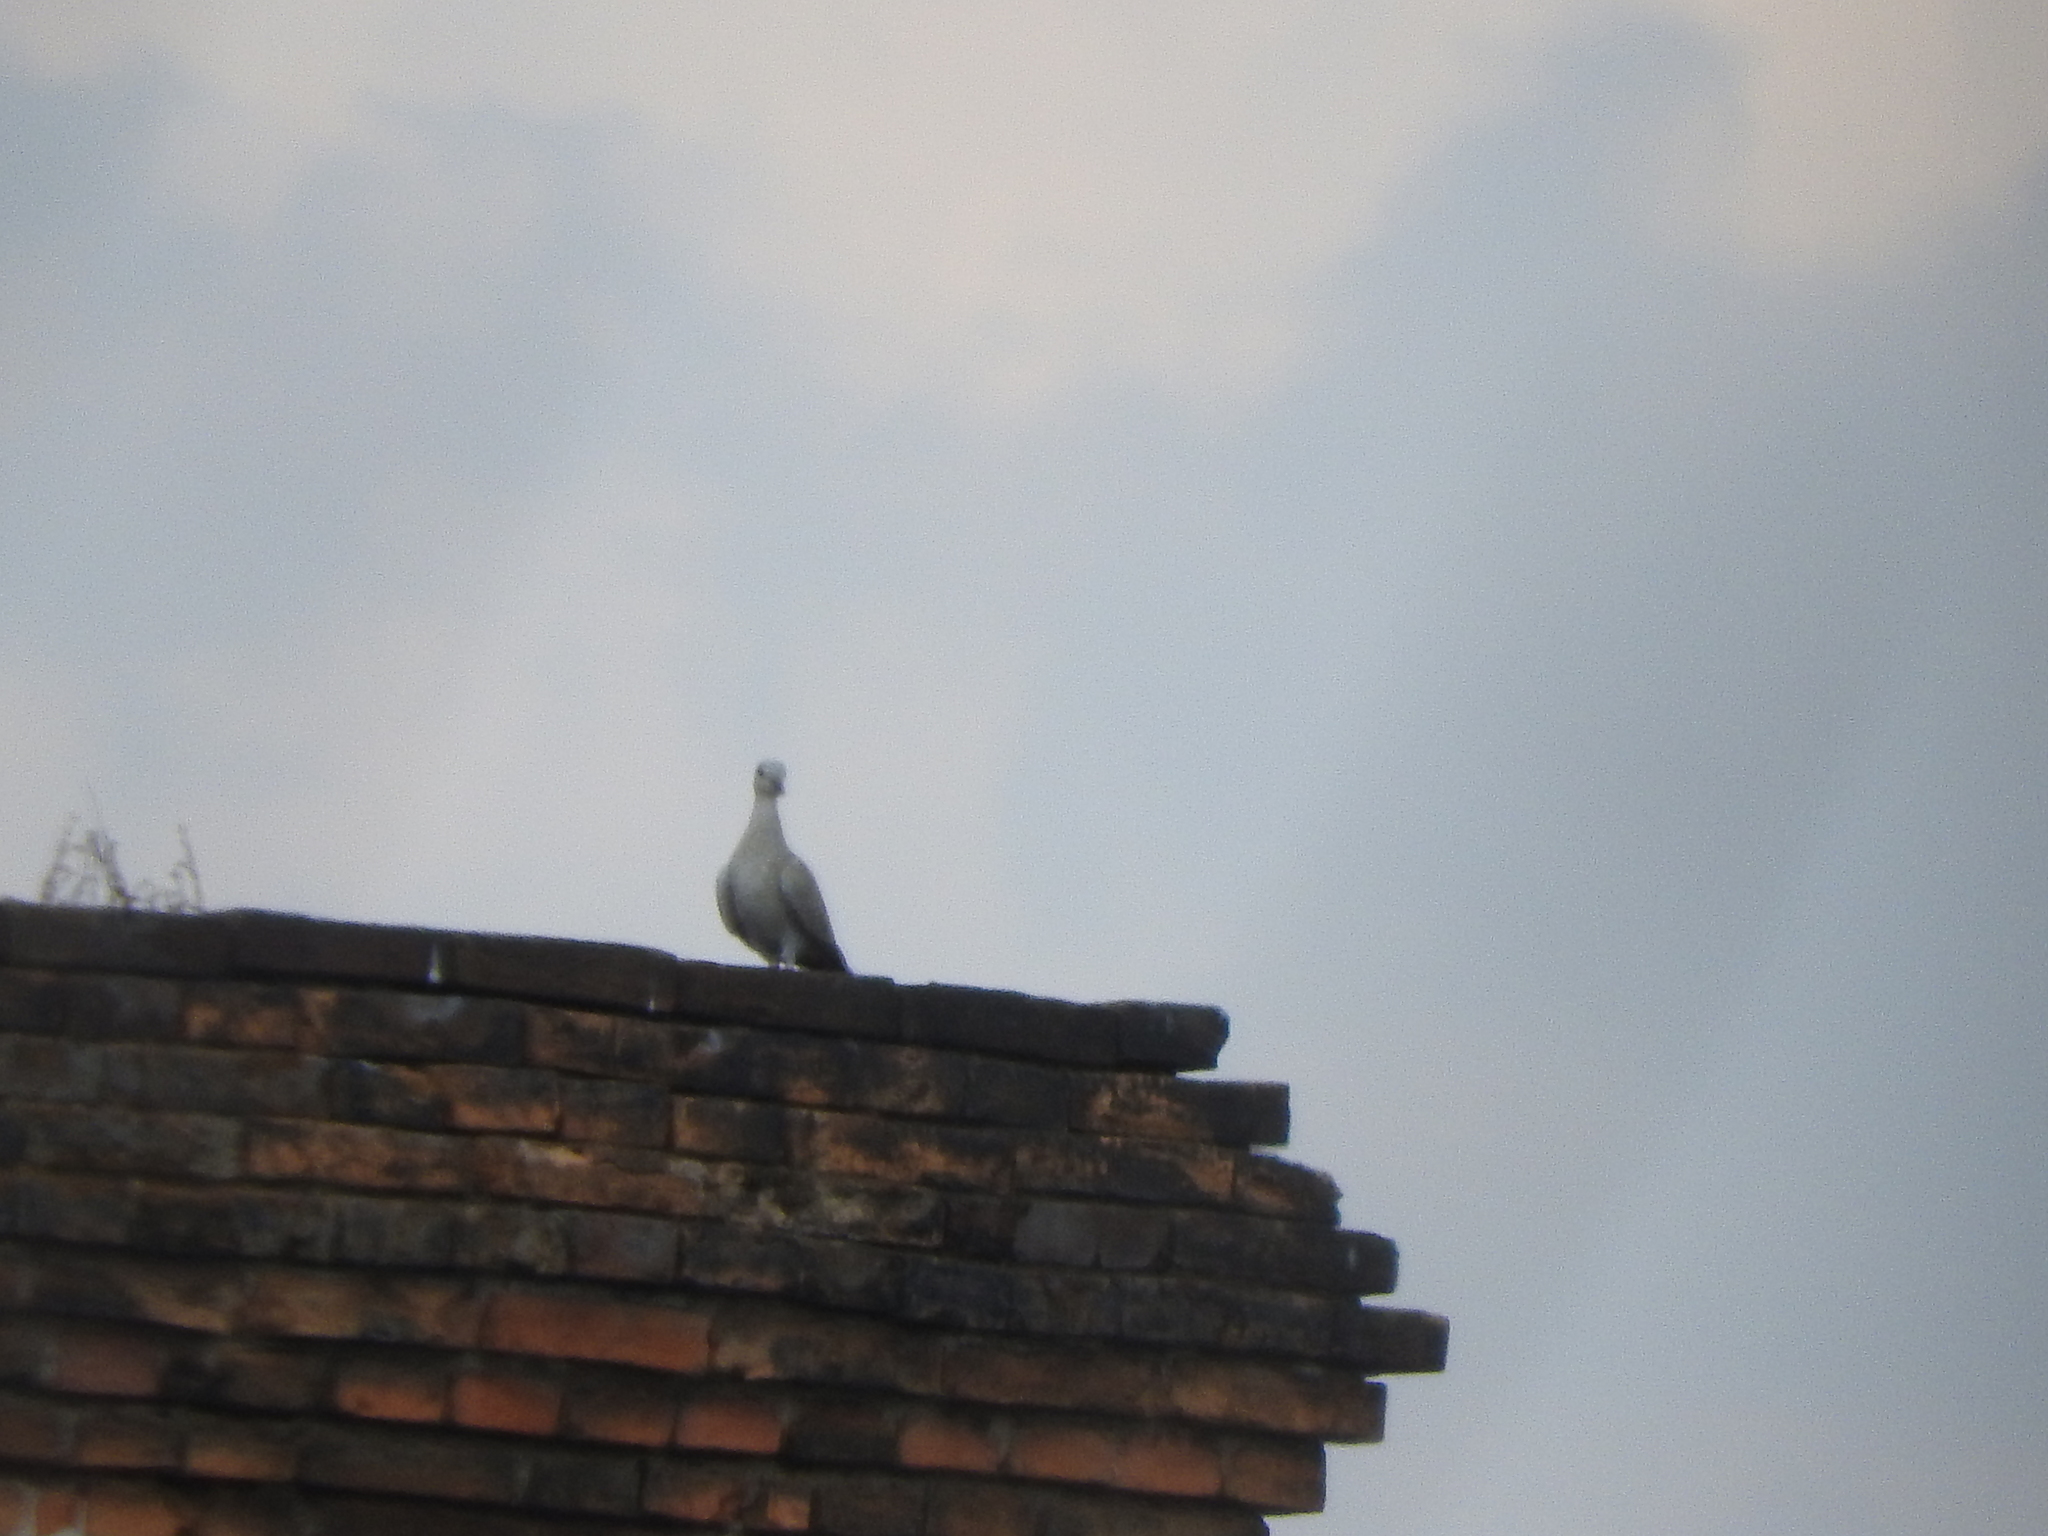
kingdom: Animalia
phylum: Chordata
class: Aves
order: Columbiformes
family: Columbidae
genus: Streptopelia
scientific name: Streptopelia decaocto
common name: Eurasian collared dove
